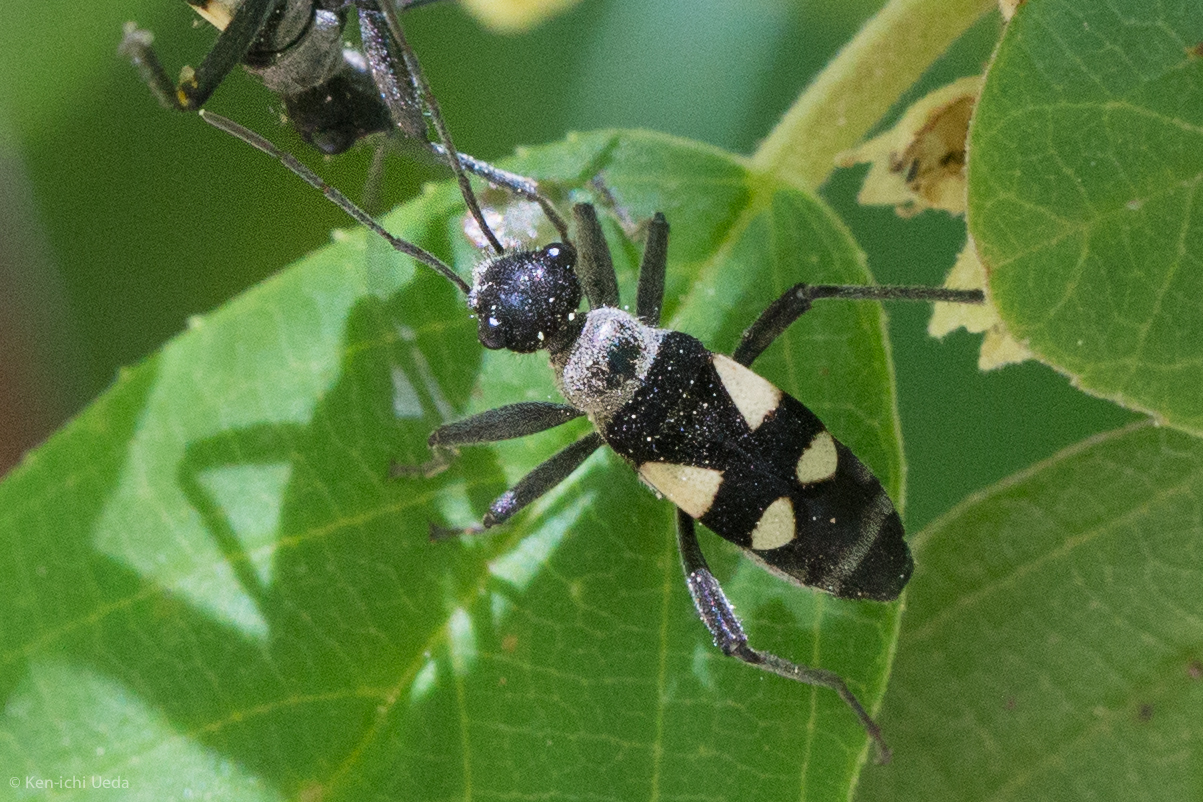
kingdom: Animalia
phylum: Arthropoda
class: Insecta
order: Hemiptera
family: Largidae
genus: Arhaphe
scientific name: Arhaphe arguta
